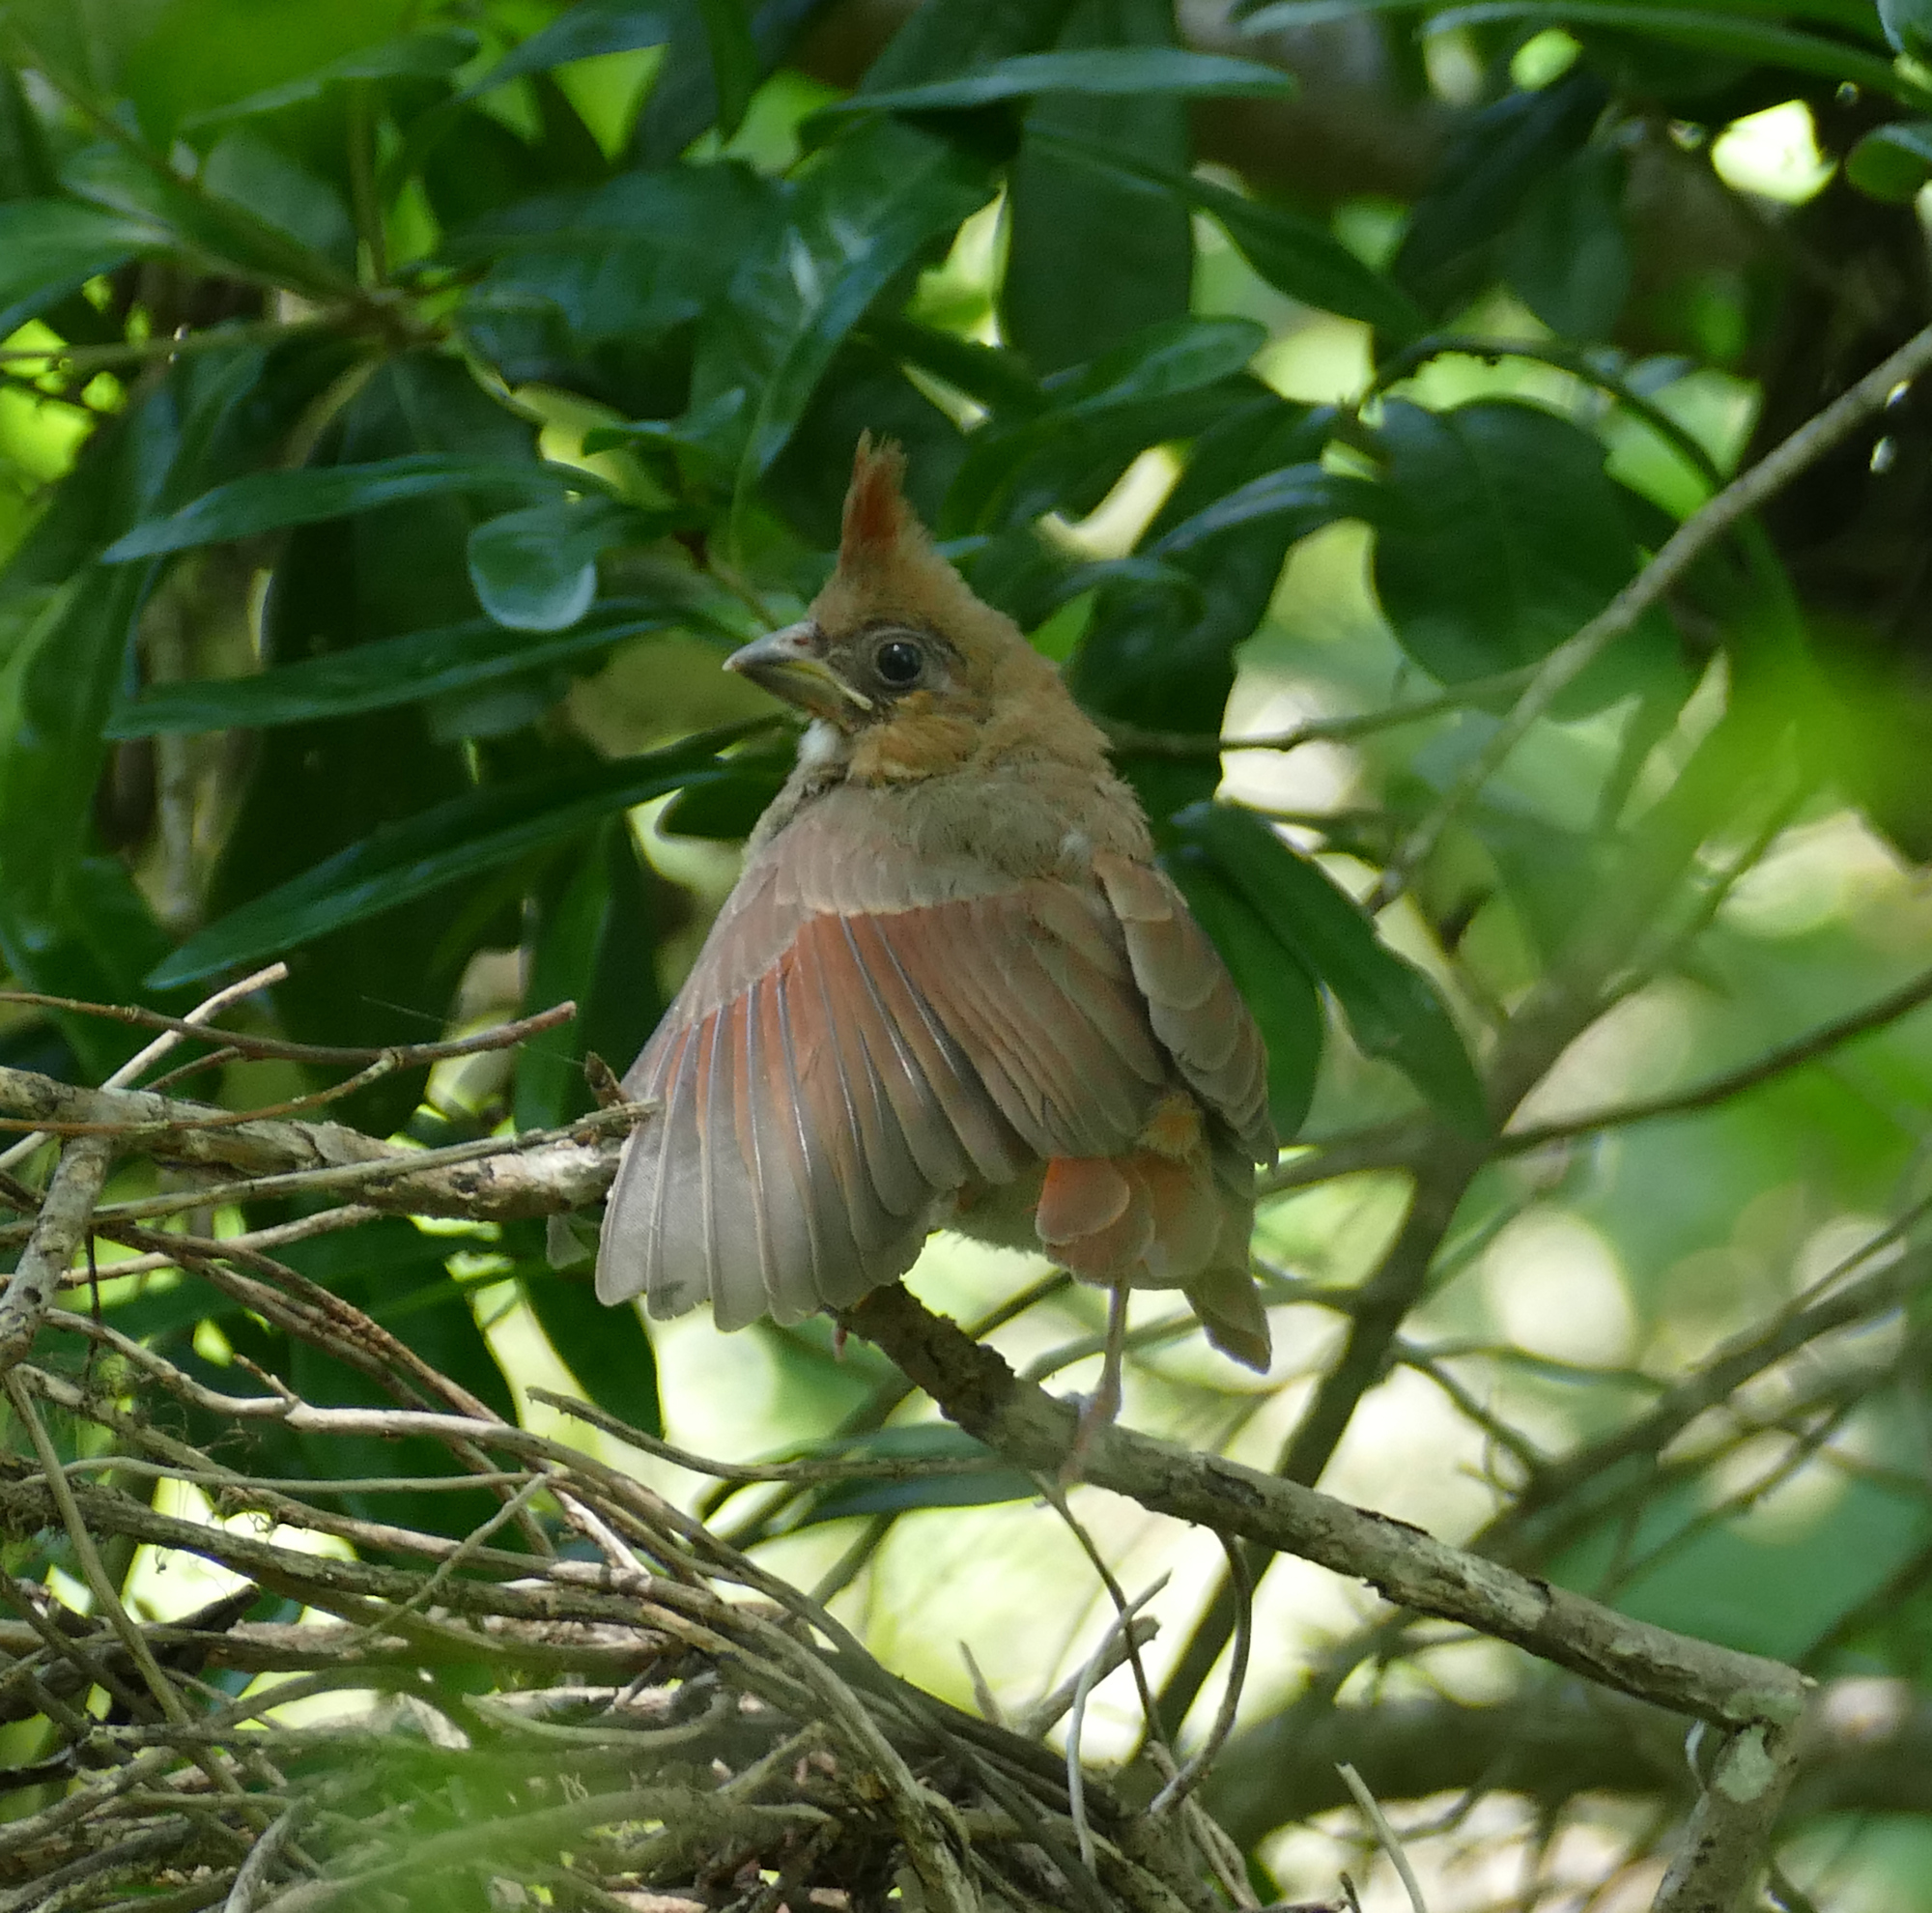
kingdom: Animalia
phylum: Chordata
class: Aves
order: Passeriformes
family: Cardinalidae
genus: Cardinalis
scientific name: Cardinalis cardinalis
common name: Northern cardinal
